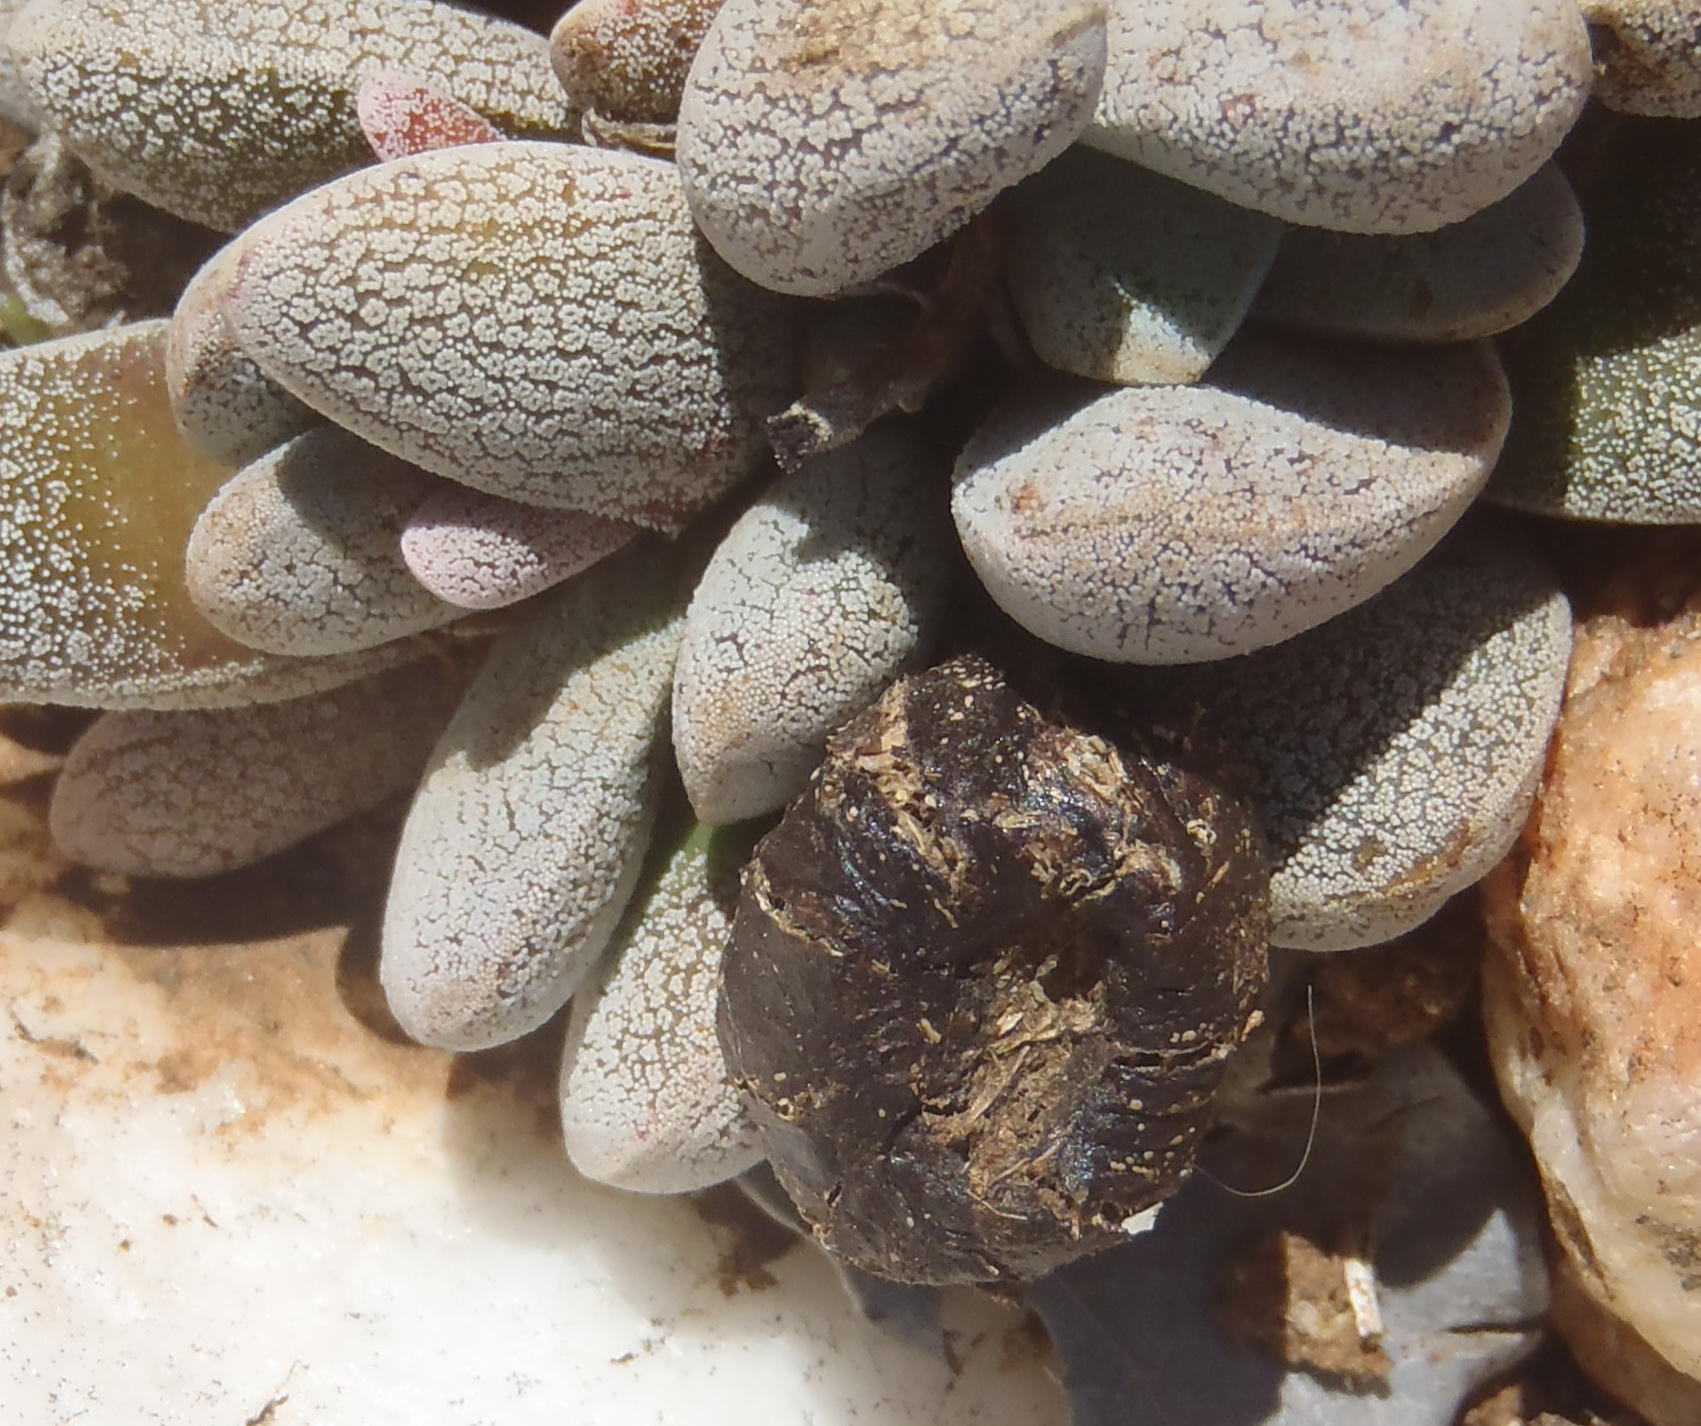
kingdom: Plantae
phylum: Tracheophyta
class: Magnoliopsida
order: Saxifragales
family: Crassulaceae
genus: Crassula
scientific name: Crassula tecta
